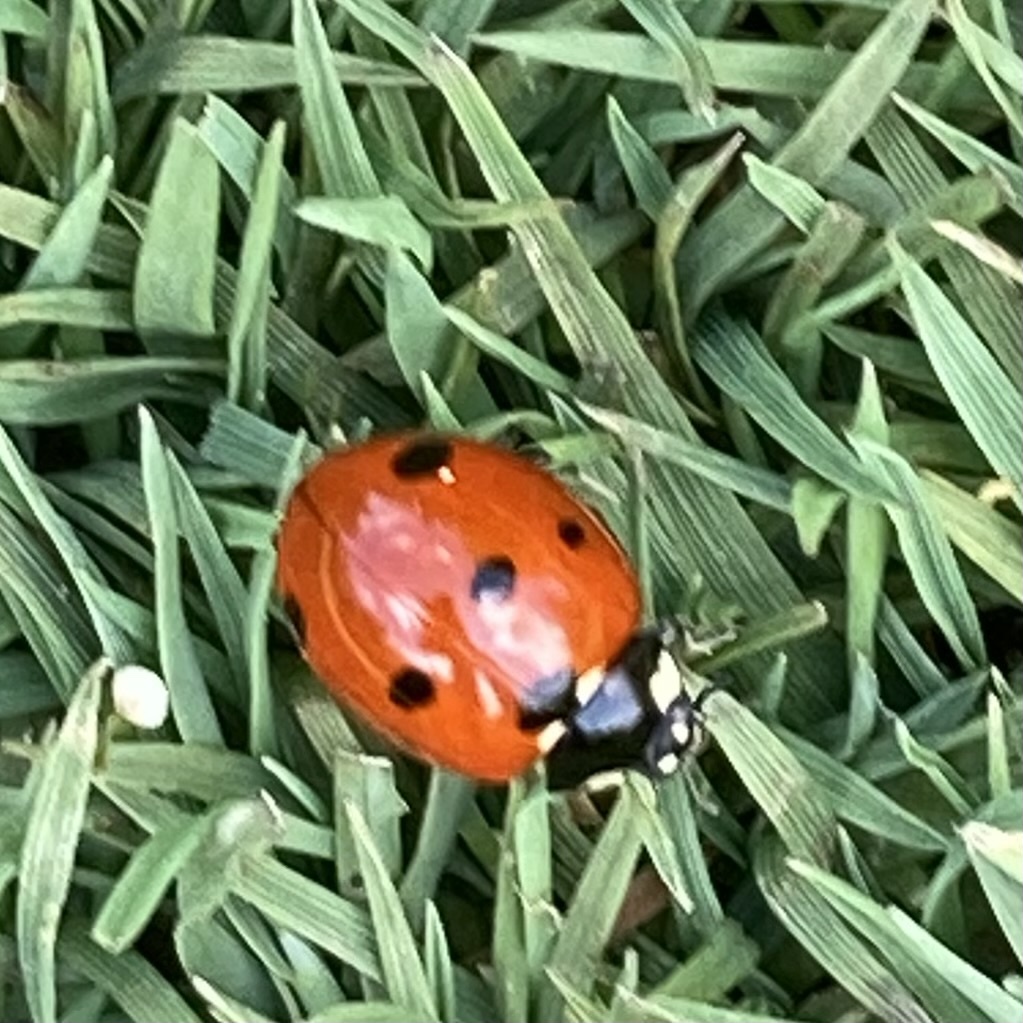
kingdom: Animalia
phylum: Arthropoda
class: Insecta
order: Coleoptera
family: Coccinellidae
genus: Coccinella
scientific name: Coccinella septempunctata
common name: Sevenspotted lady beetle
